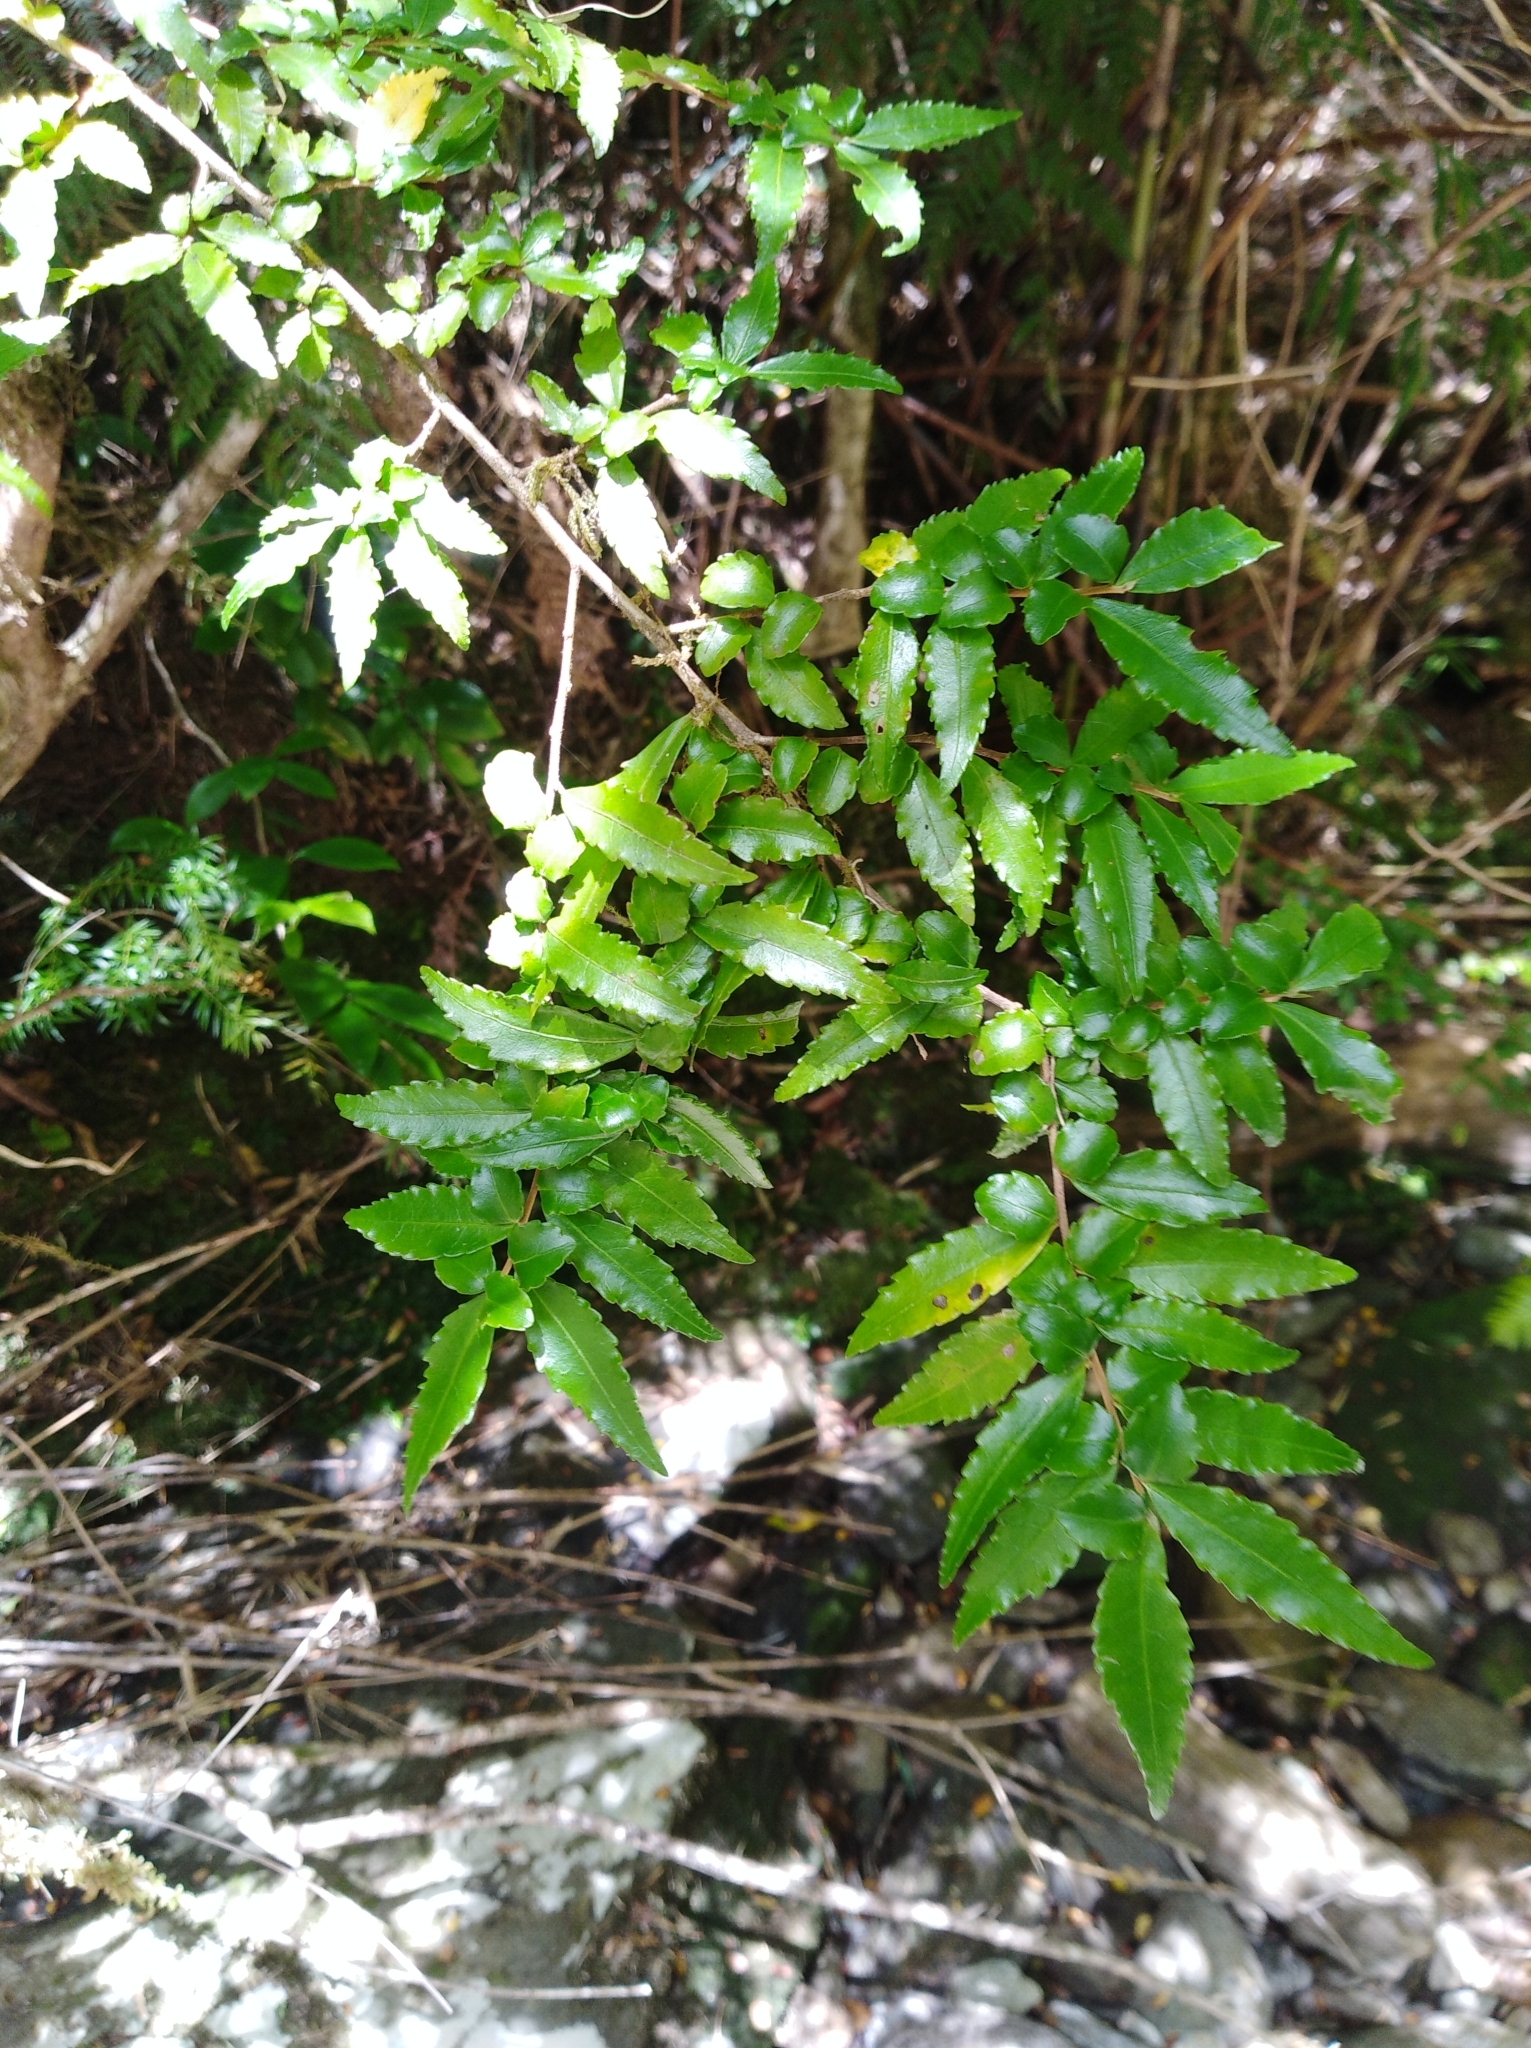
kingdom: Plantae
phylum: Tracheophyta
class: Magnoliopsida
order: Malpighiales
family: Salicaceae
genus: Azara
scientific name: Azara lanceolata
